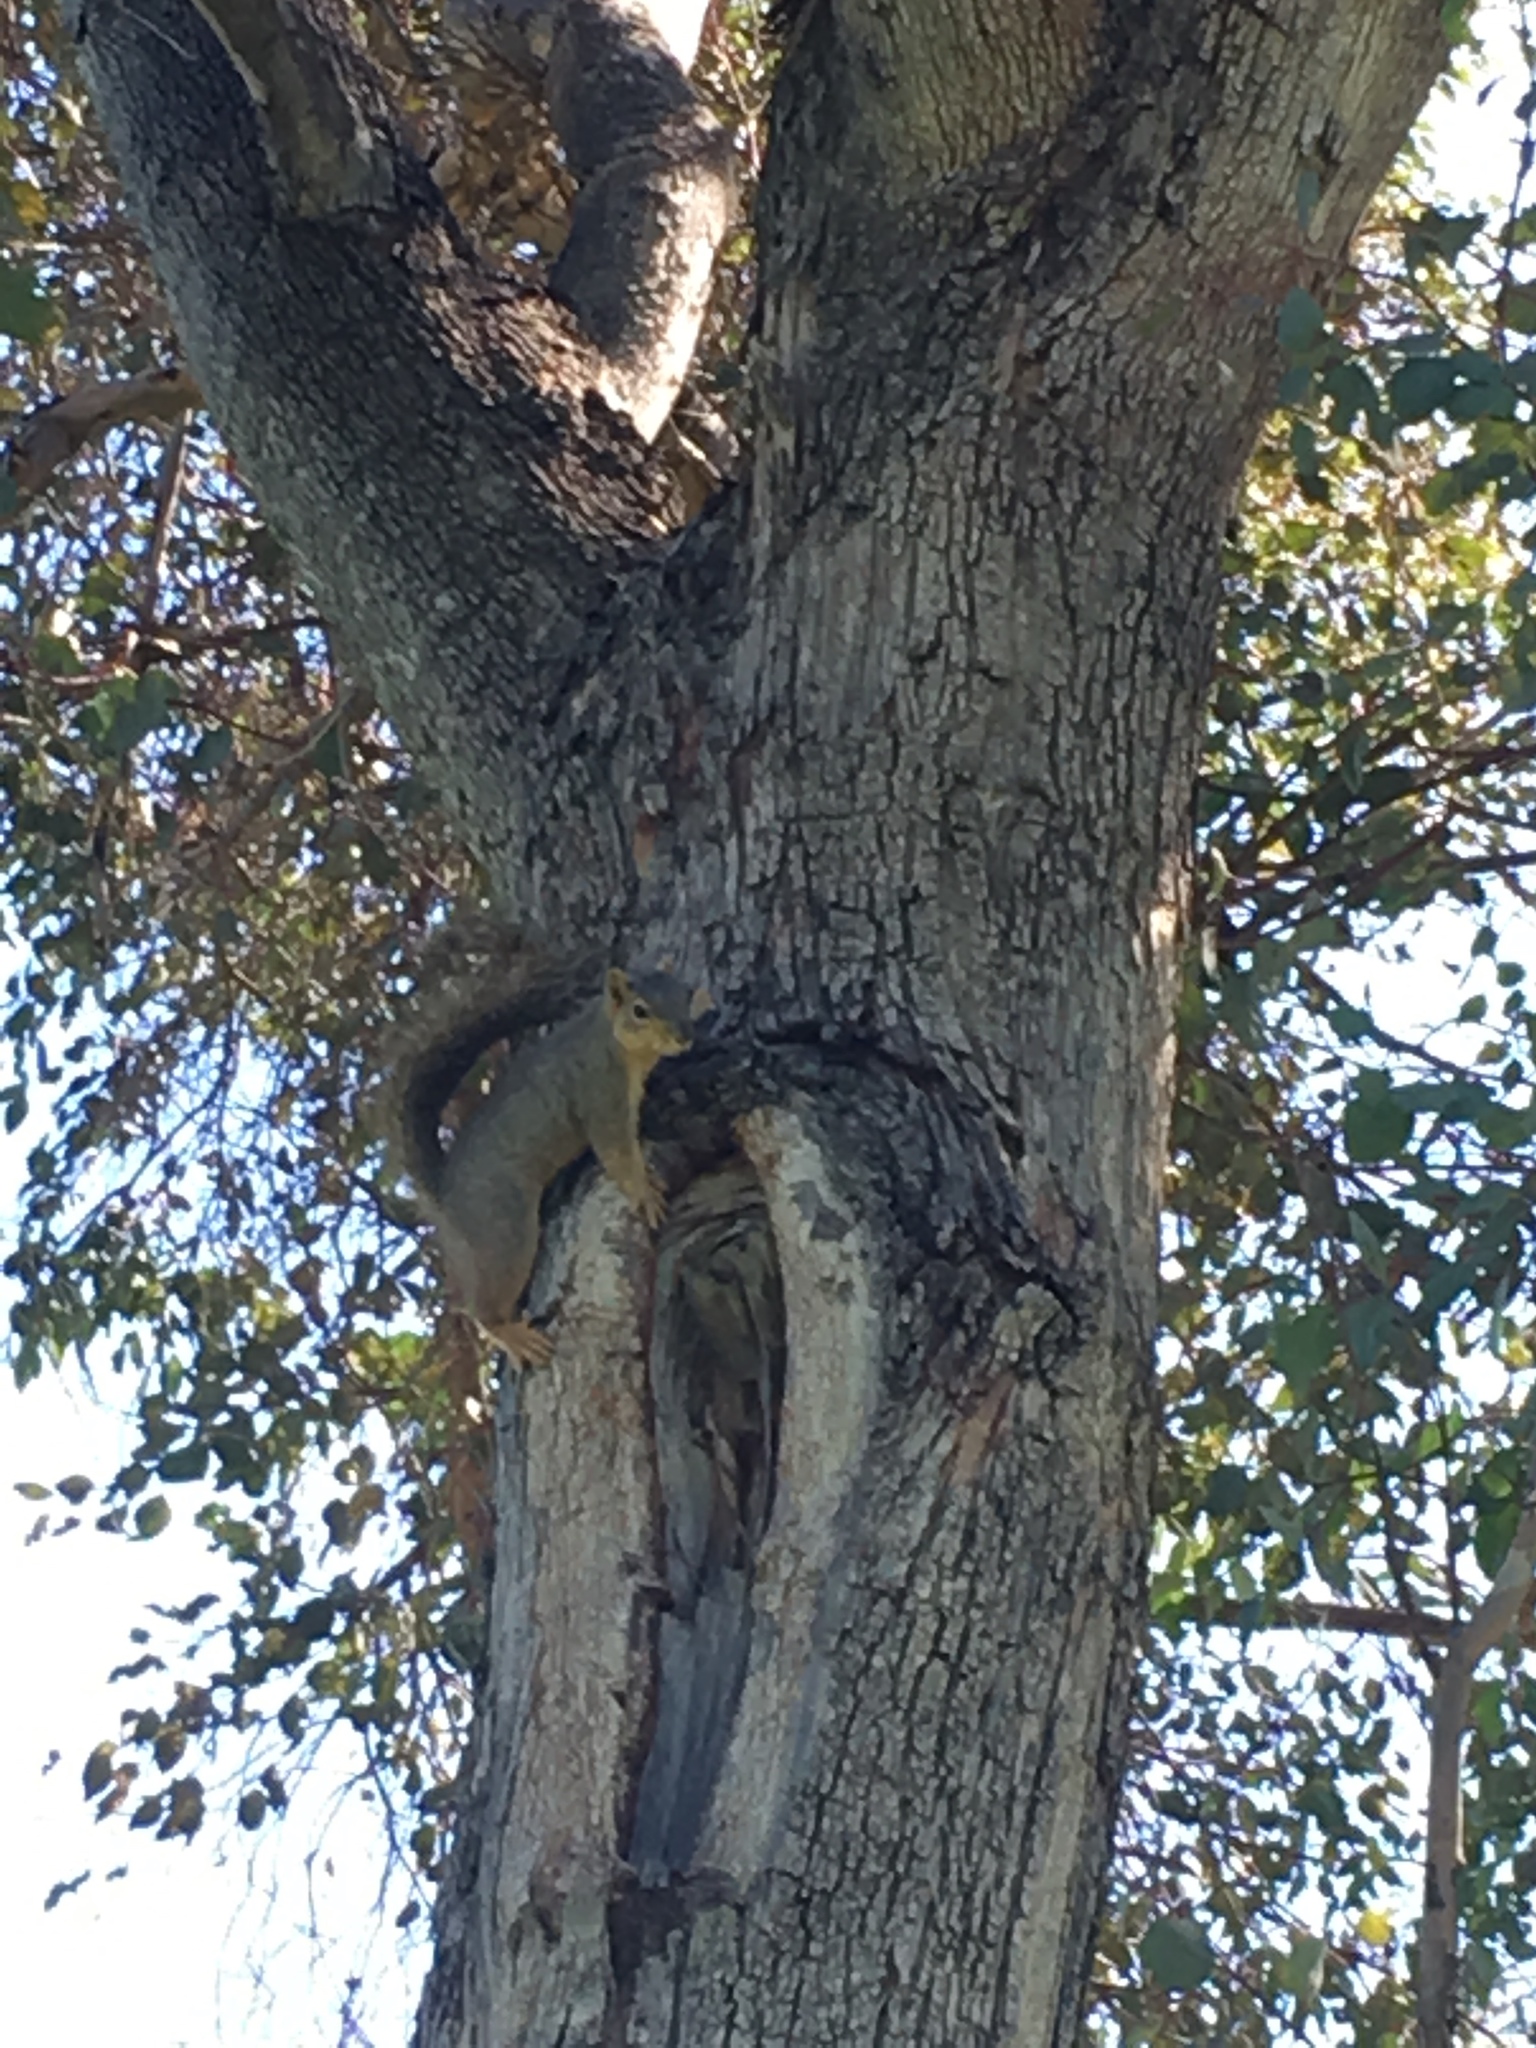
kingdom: Animalia
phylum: Chordata
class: Mammalia
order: Rodentia
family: Sciuridae
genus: Sciurus
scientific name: Sciurus niger
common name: Fox squirrel
